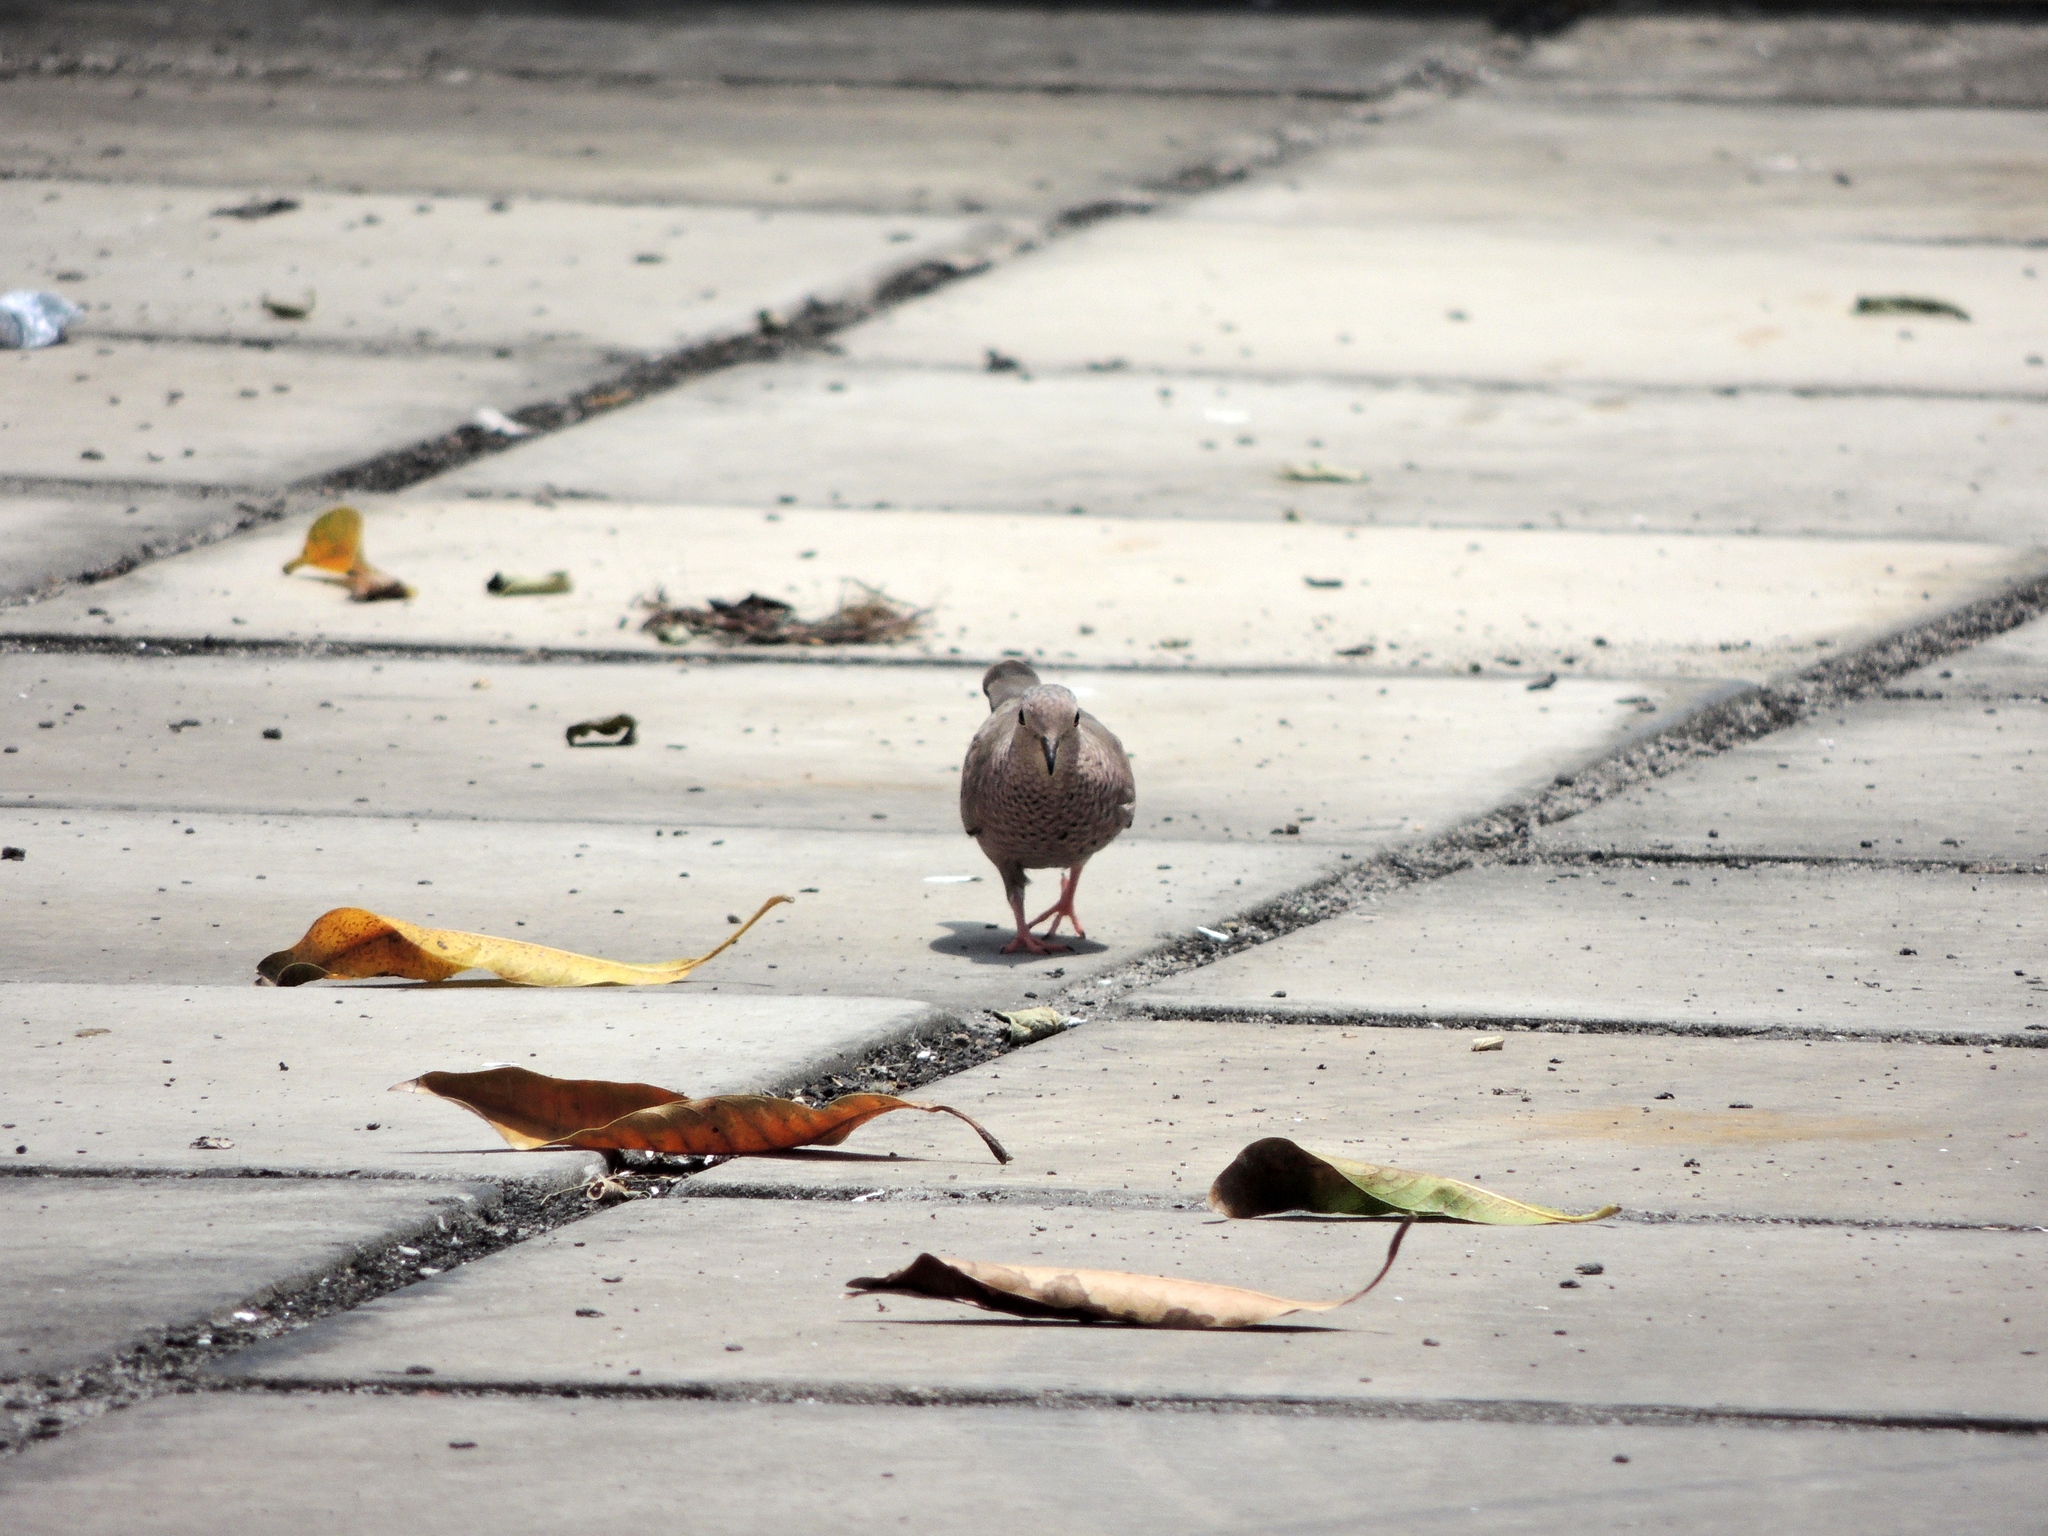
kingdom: Animalia
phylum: Chordata
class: Aves
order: Columbiformes
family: Columbidae
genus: Columbina
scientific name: Columbina passerina
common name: Common ground-dove
